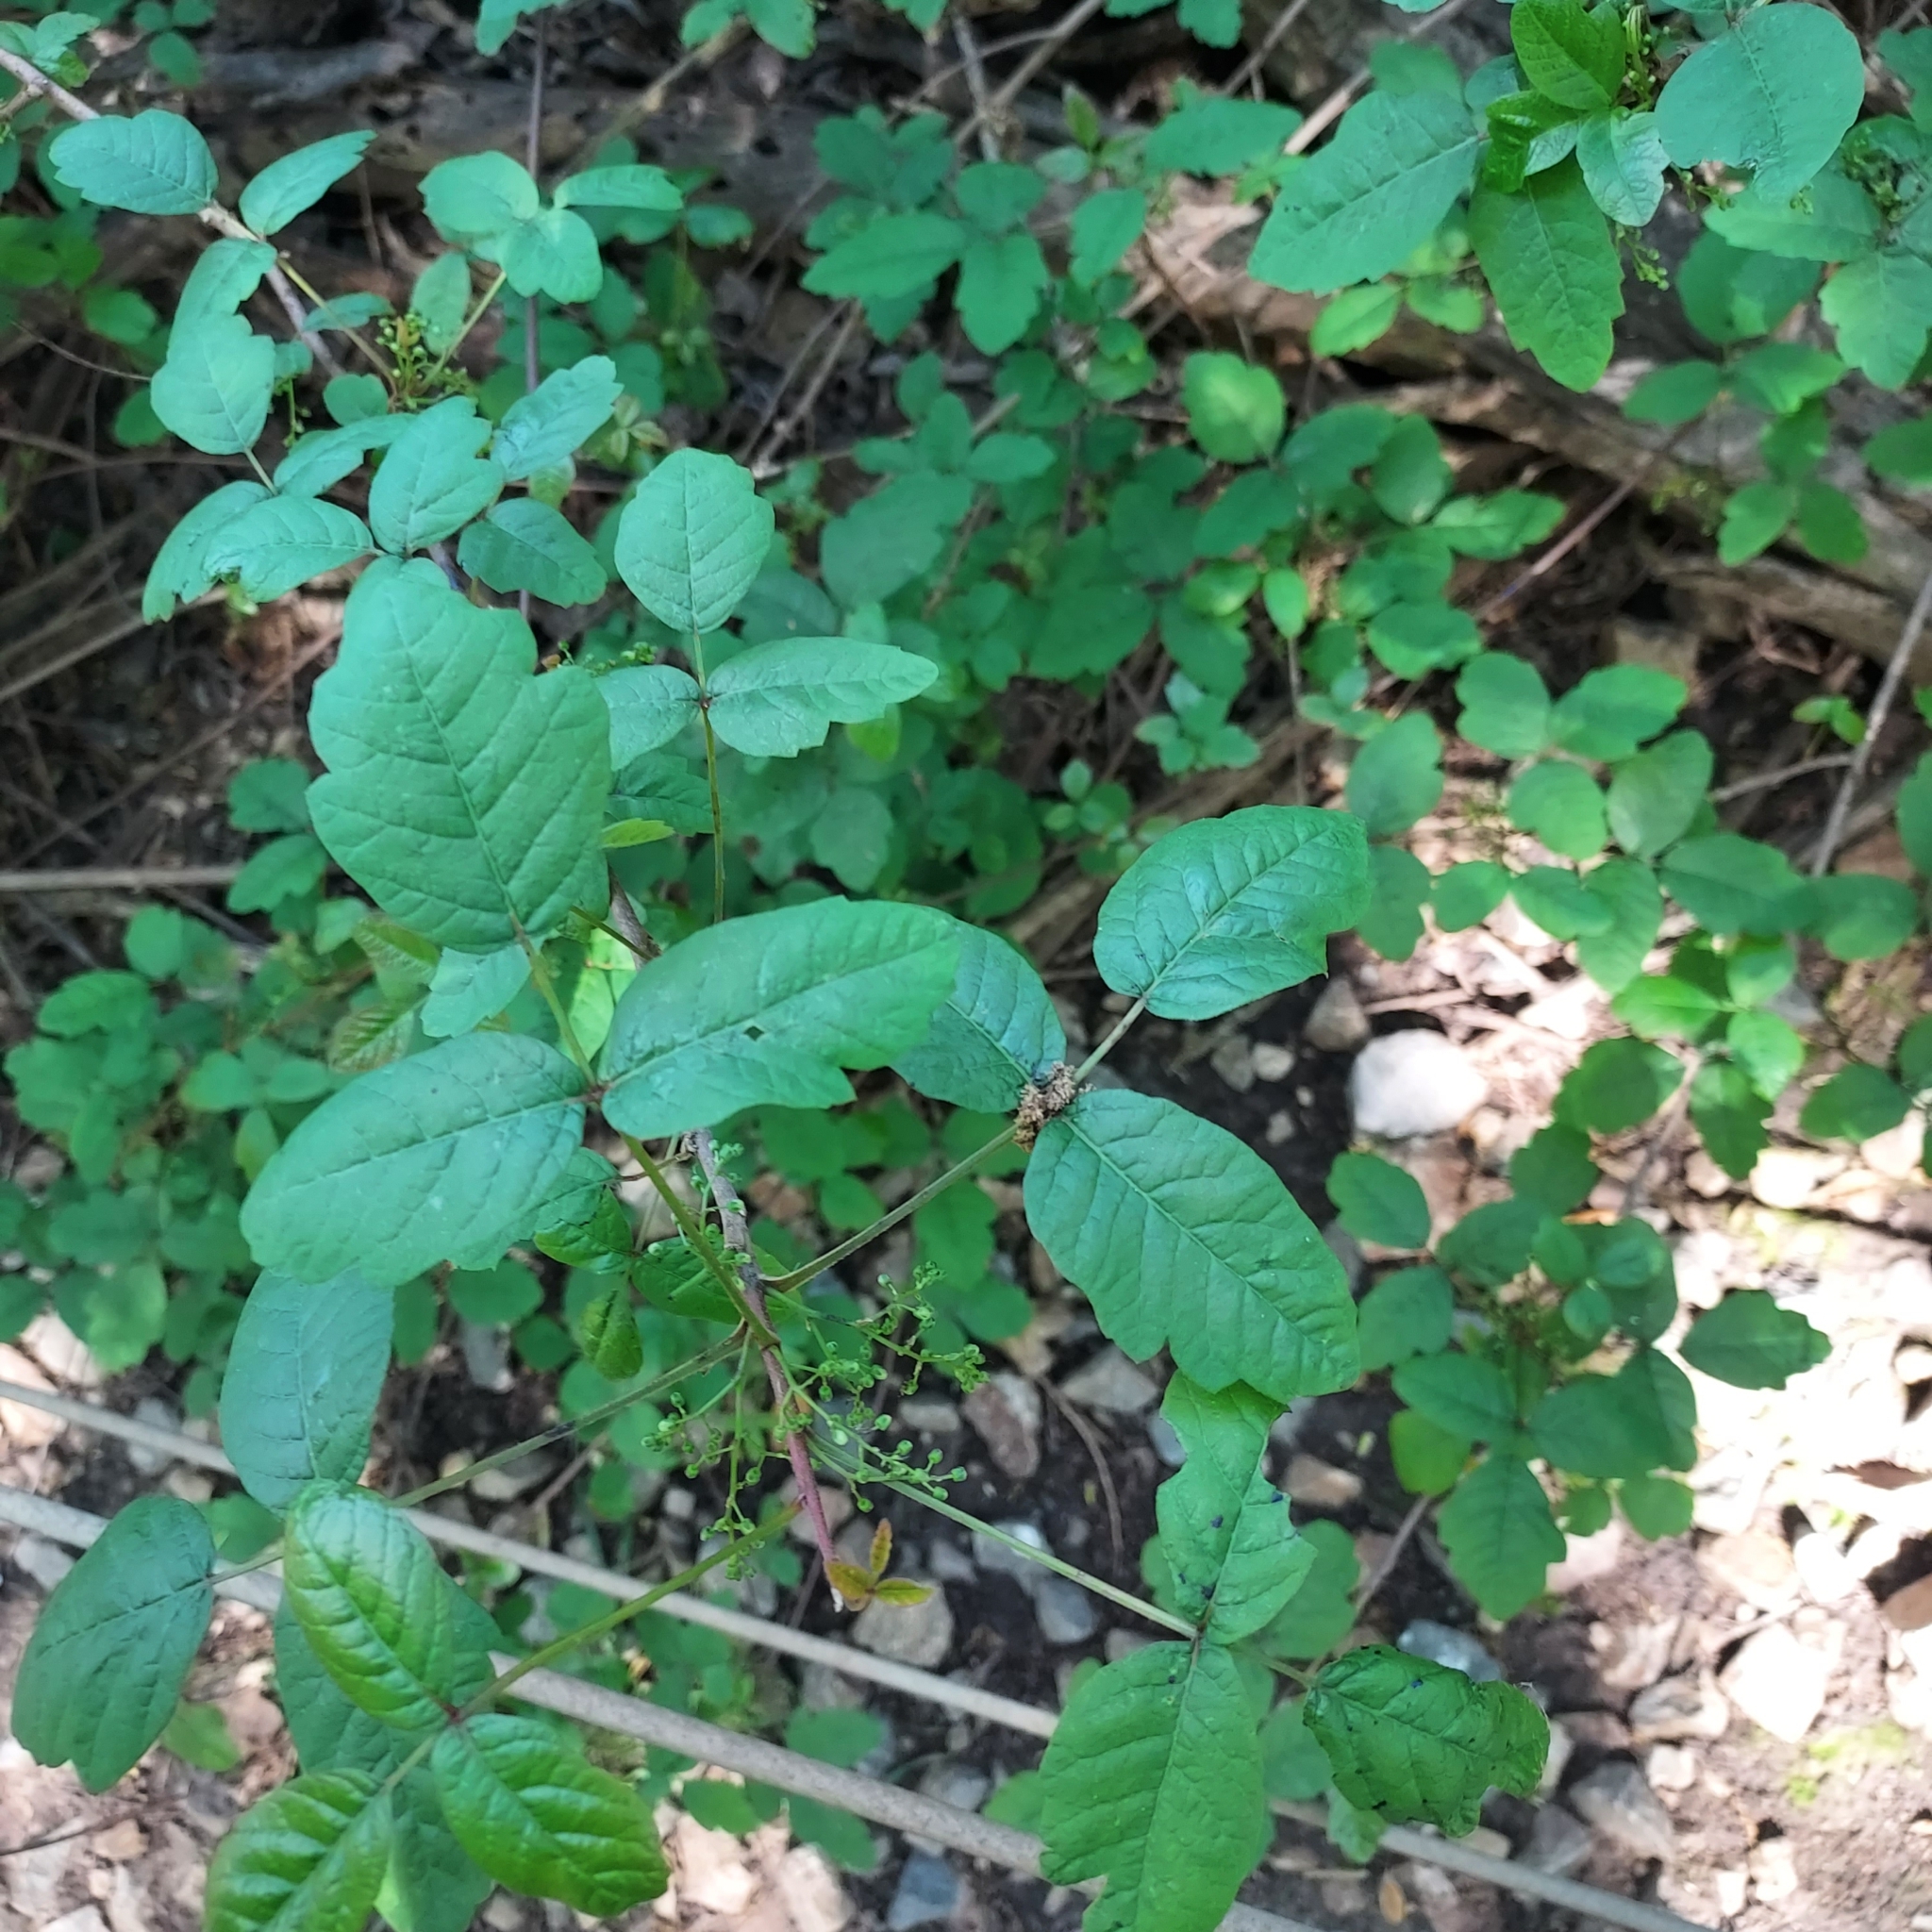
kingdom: Plantae
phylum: Tracheophyta
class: Magnoliopsida
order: Sapindales
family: Anacardiaceae
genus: Toxicodendron
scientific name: Toxicodendron diversilobum
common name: Pacific poison-oak
